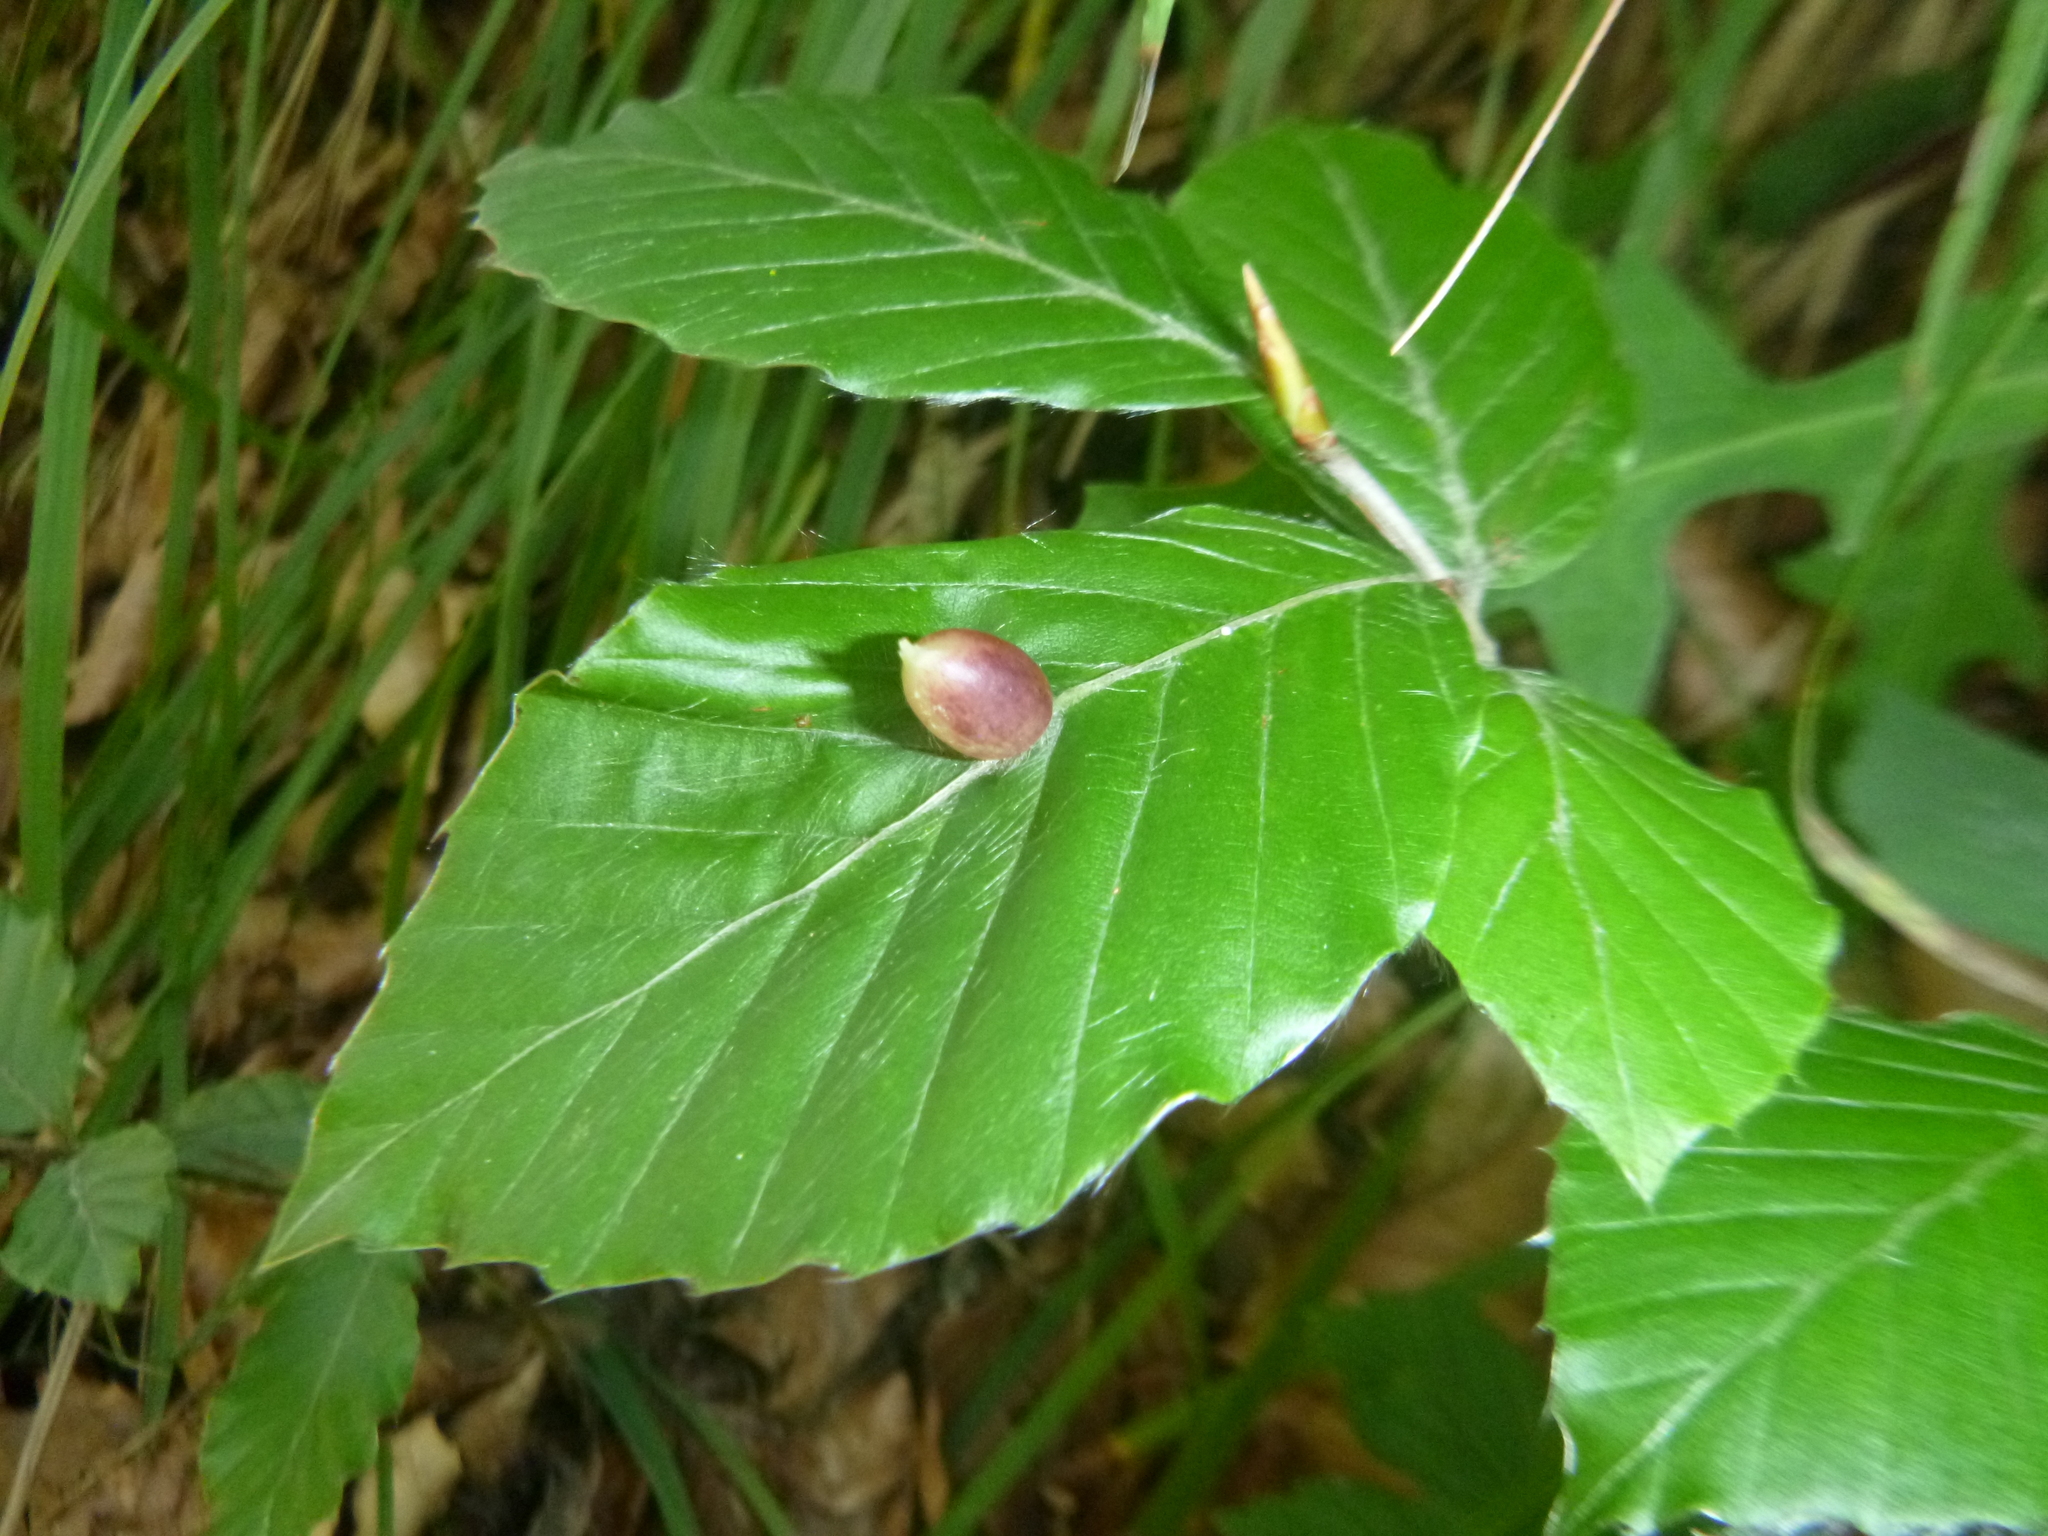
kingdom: Animalia
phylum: Arthropoda
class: Insecta
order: Diptera
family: Cecidomyiidae
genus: Mikiola
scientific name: Mikiola fagi
